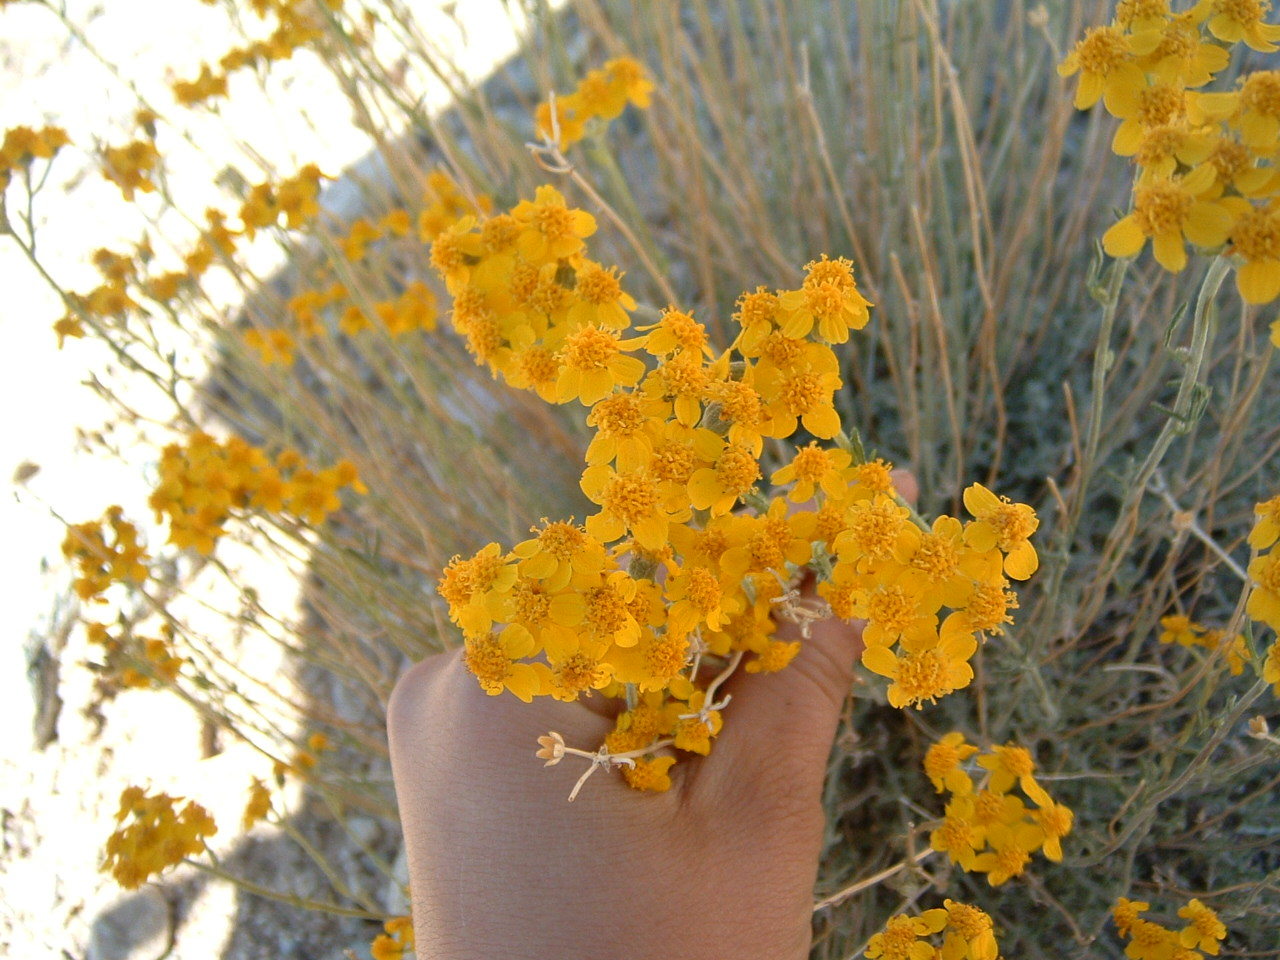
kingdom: Plantae
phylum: Tracheophyta
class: Magnoliopsida
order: Asterales
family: Asteraceae
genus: Eriophyllum
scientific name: Eriophyllum confertiflorum
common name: Golden-yarrow
